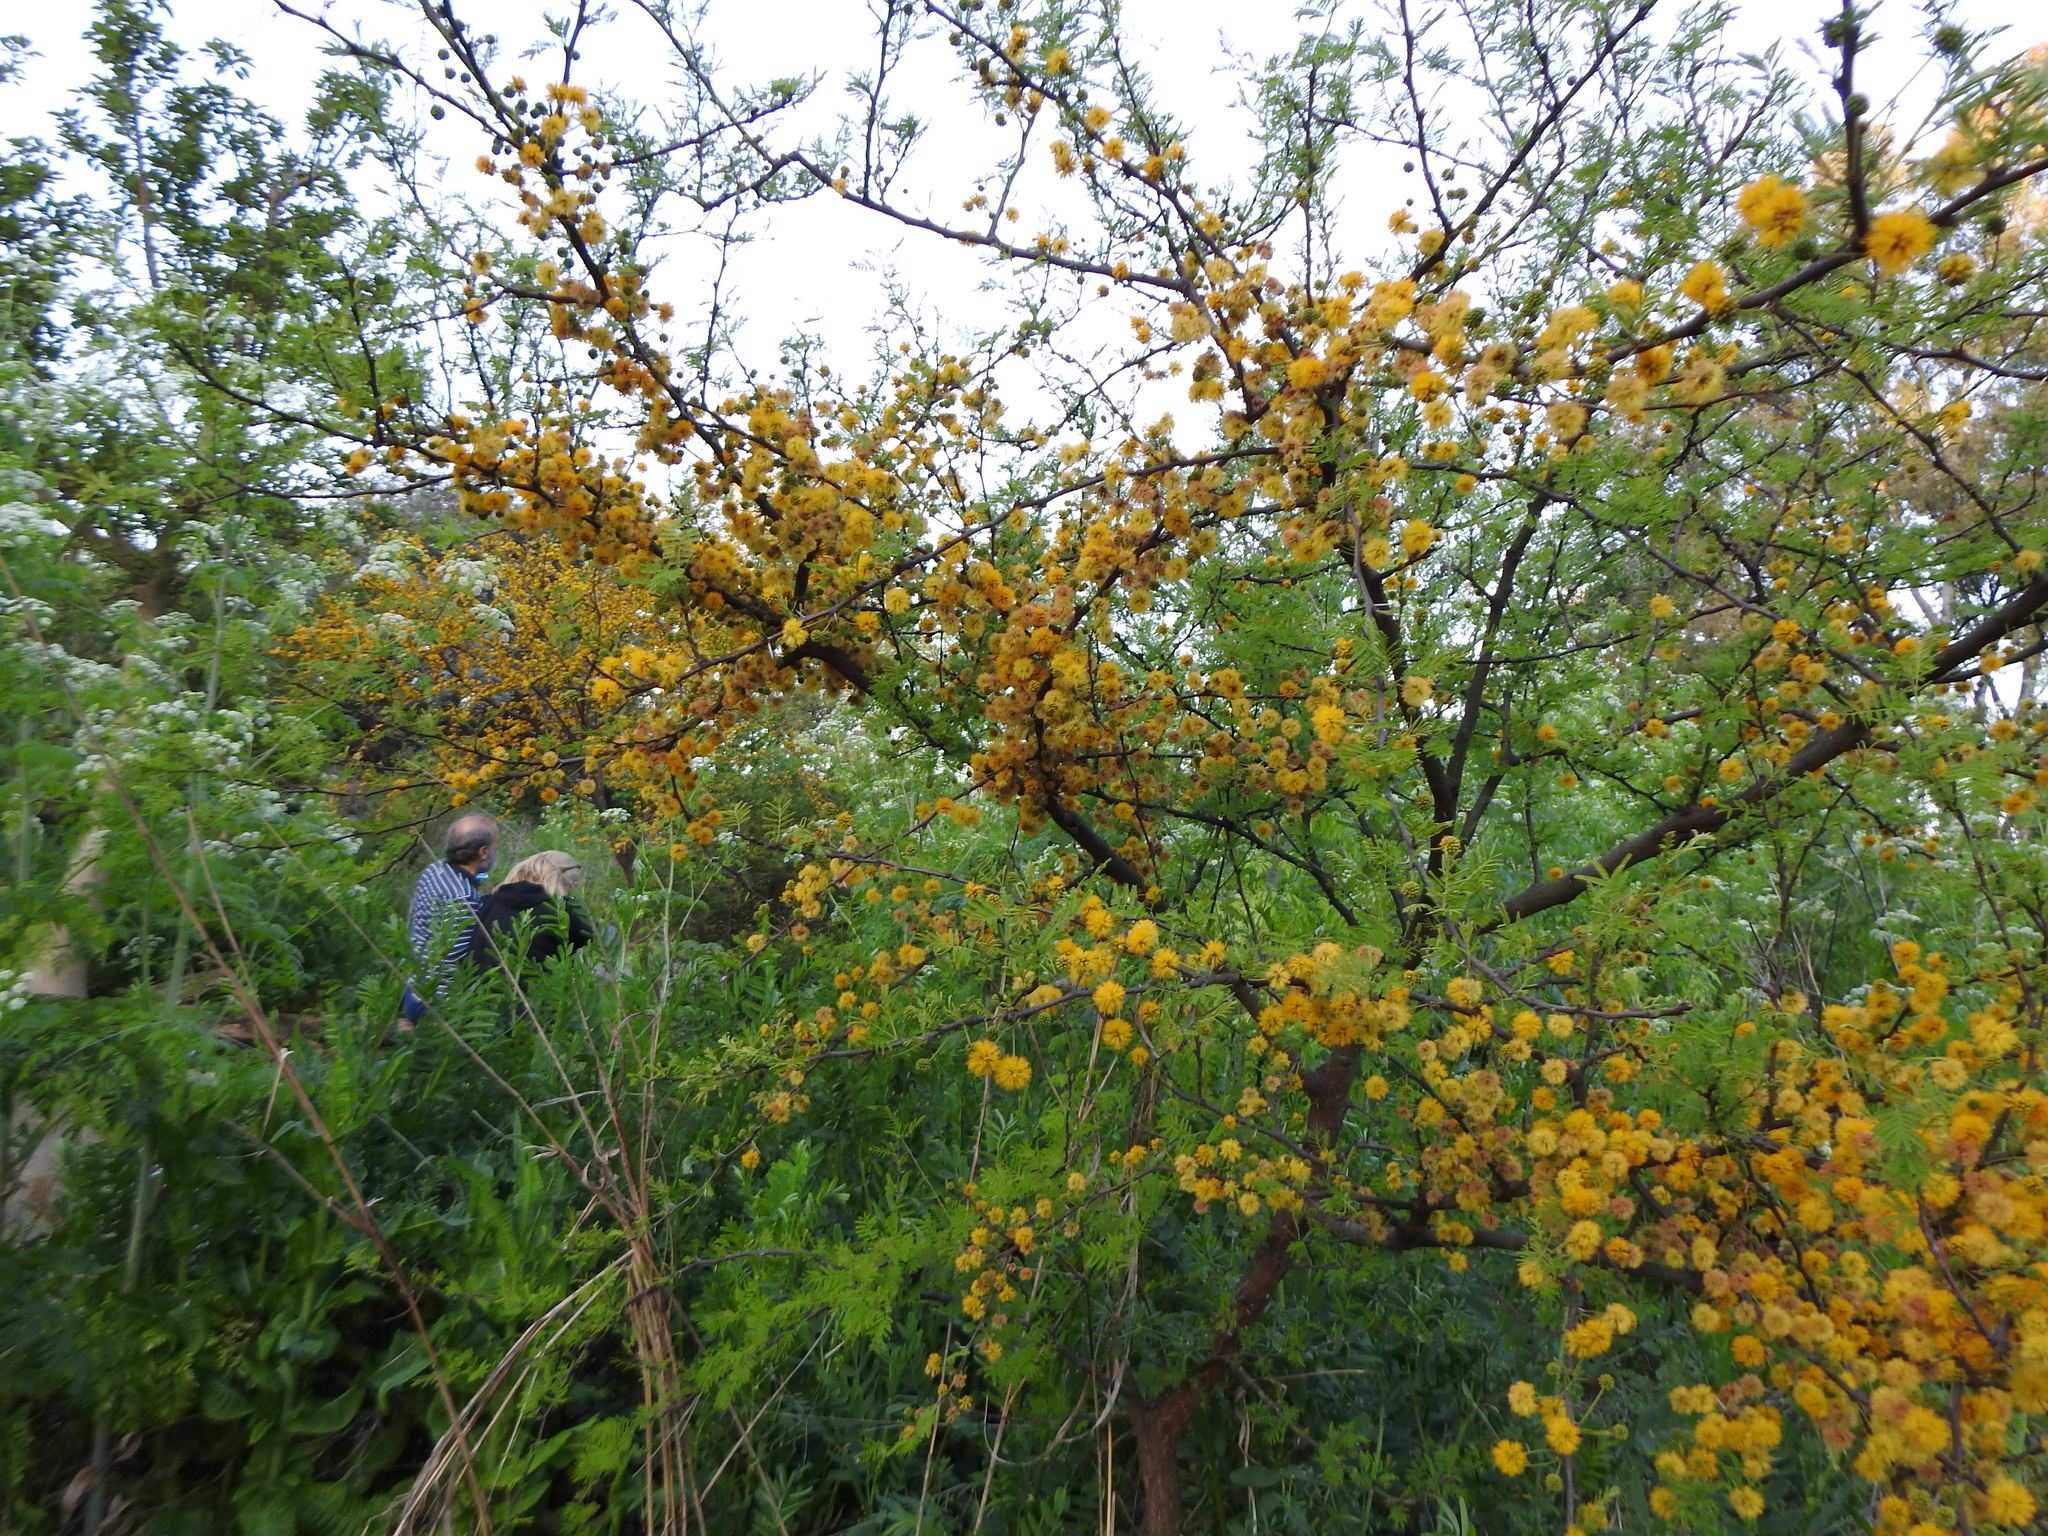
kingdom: Plantae
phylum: Tracheophyta
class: Magnoliopsida
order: Fabales
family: Fabaceae
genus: Vachellia
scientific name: Vachellia caven
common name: Roman cassie
